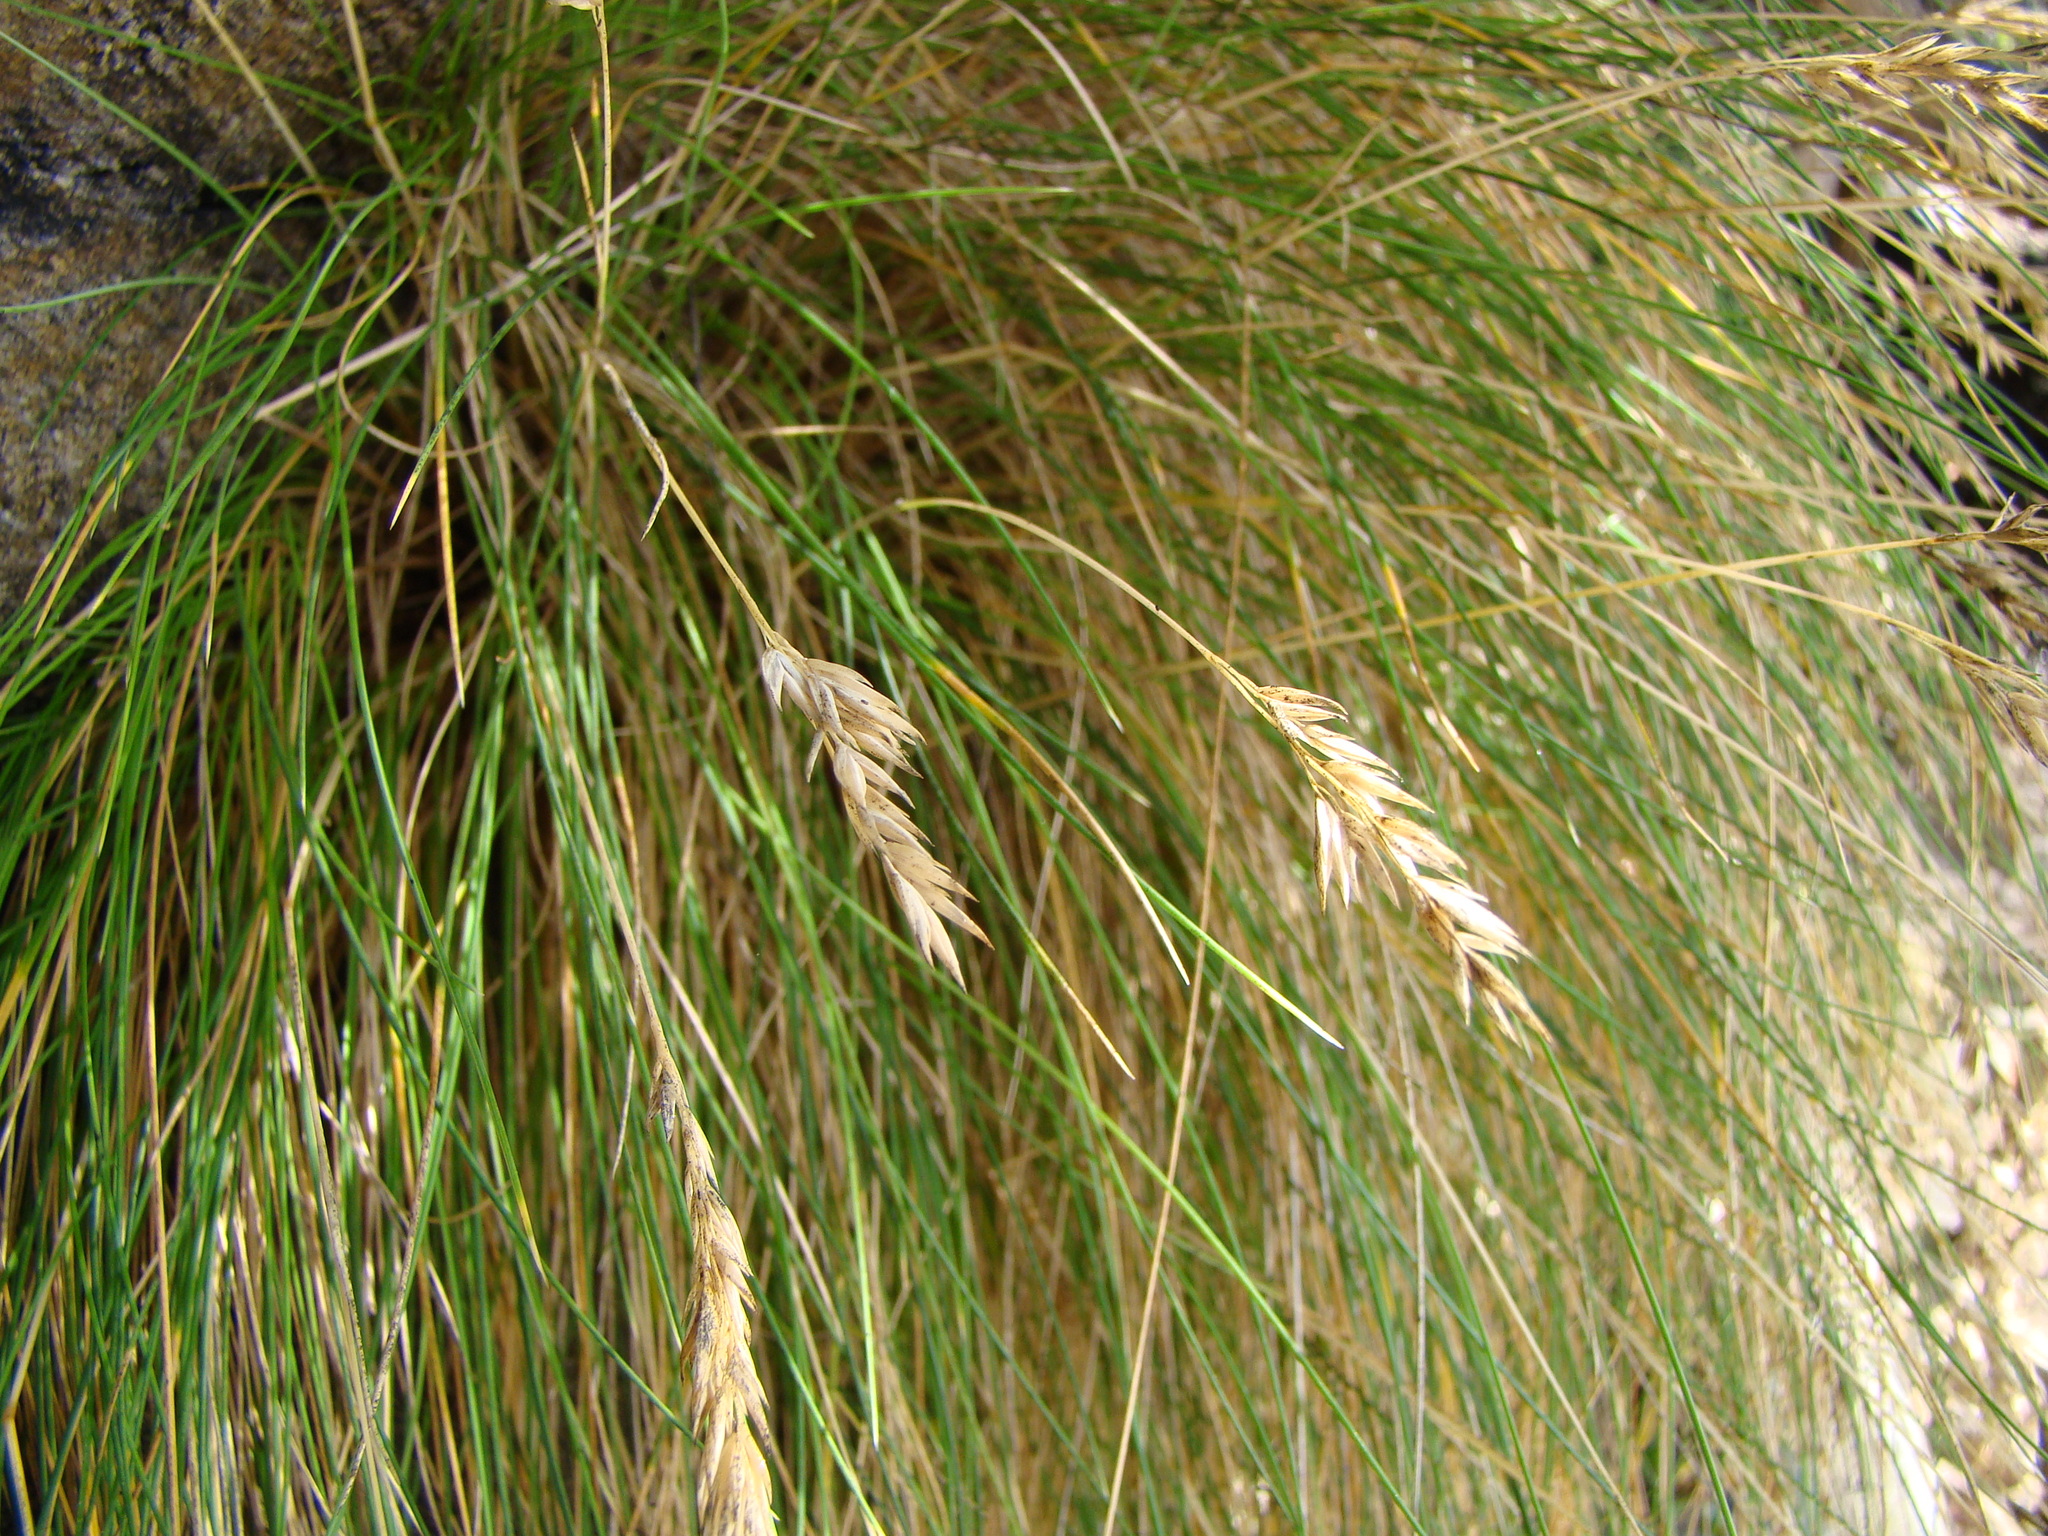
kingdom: Plantae
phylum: Tracheophyta
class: Liliopsida
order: Poales
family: Poaceae
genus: Poa
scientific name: Poa astonii
